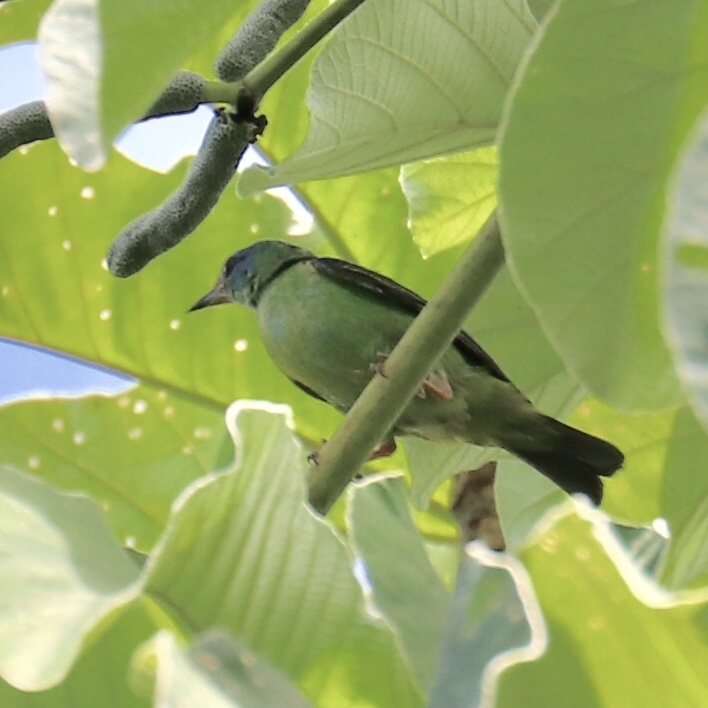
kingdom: Animalia
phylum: Chordata
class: Aves
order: Passeriformes
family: Thraupidae
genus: Dacnis
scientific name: Dacnis cayana
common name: Blue dacnis
